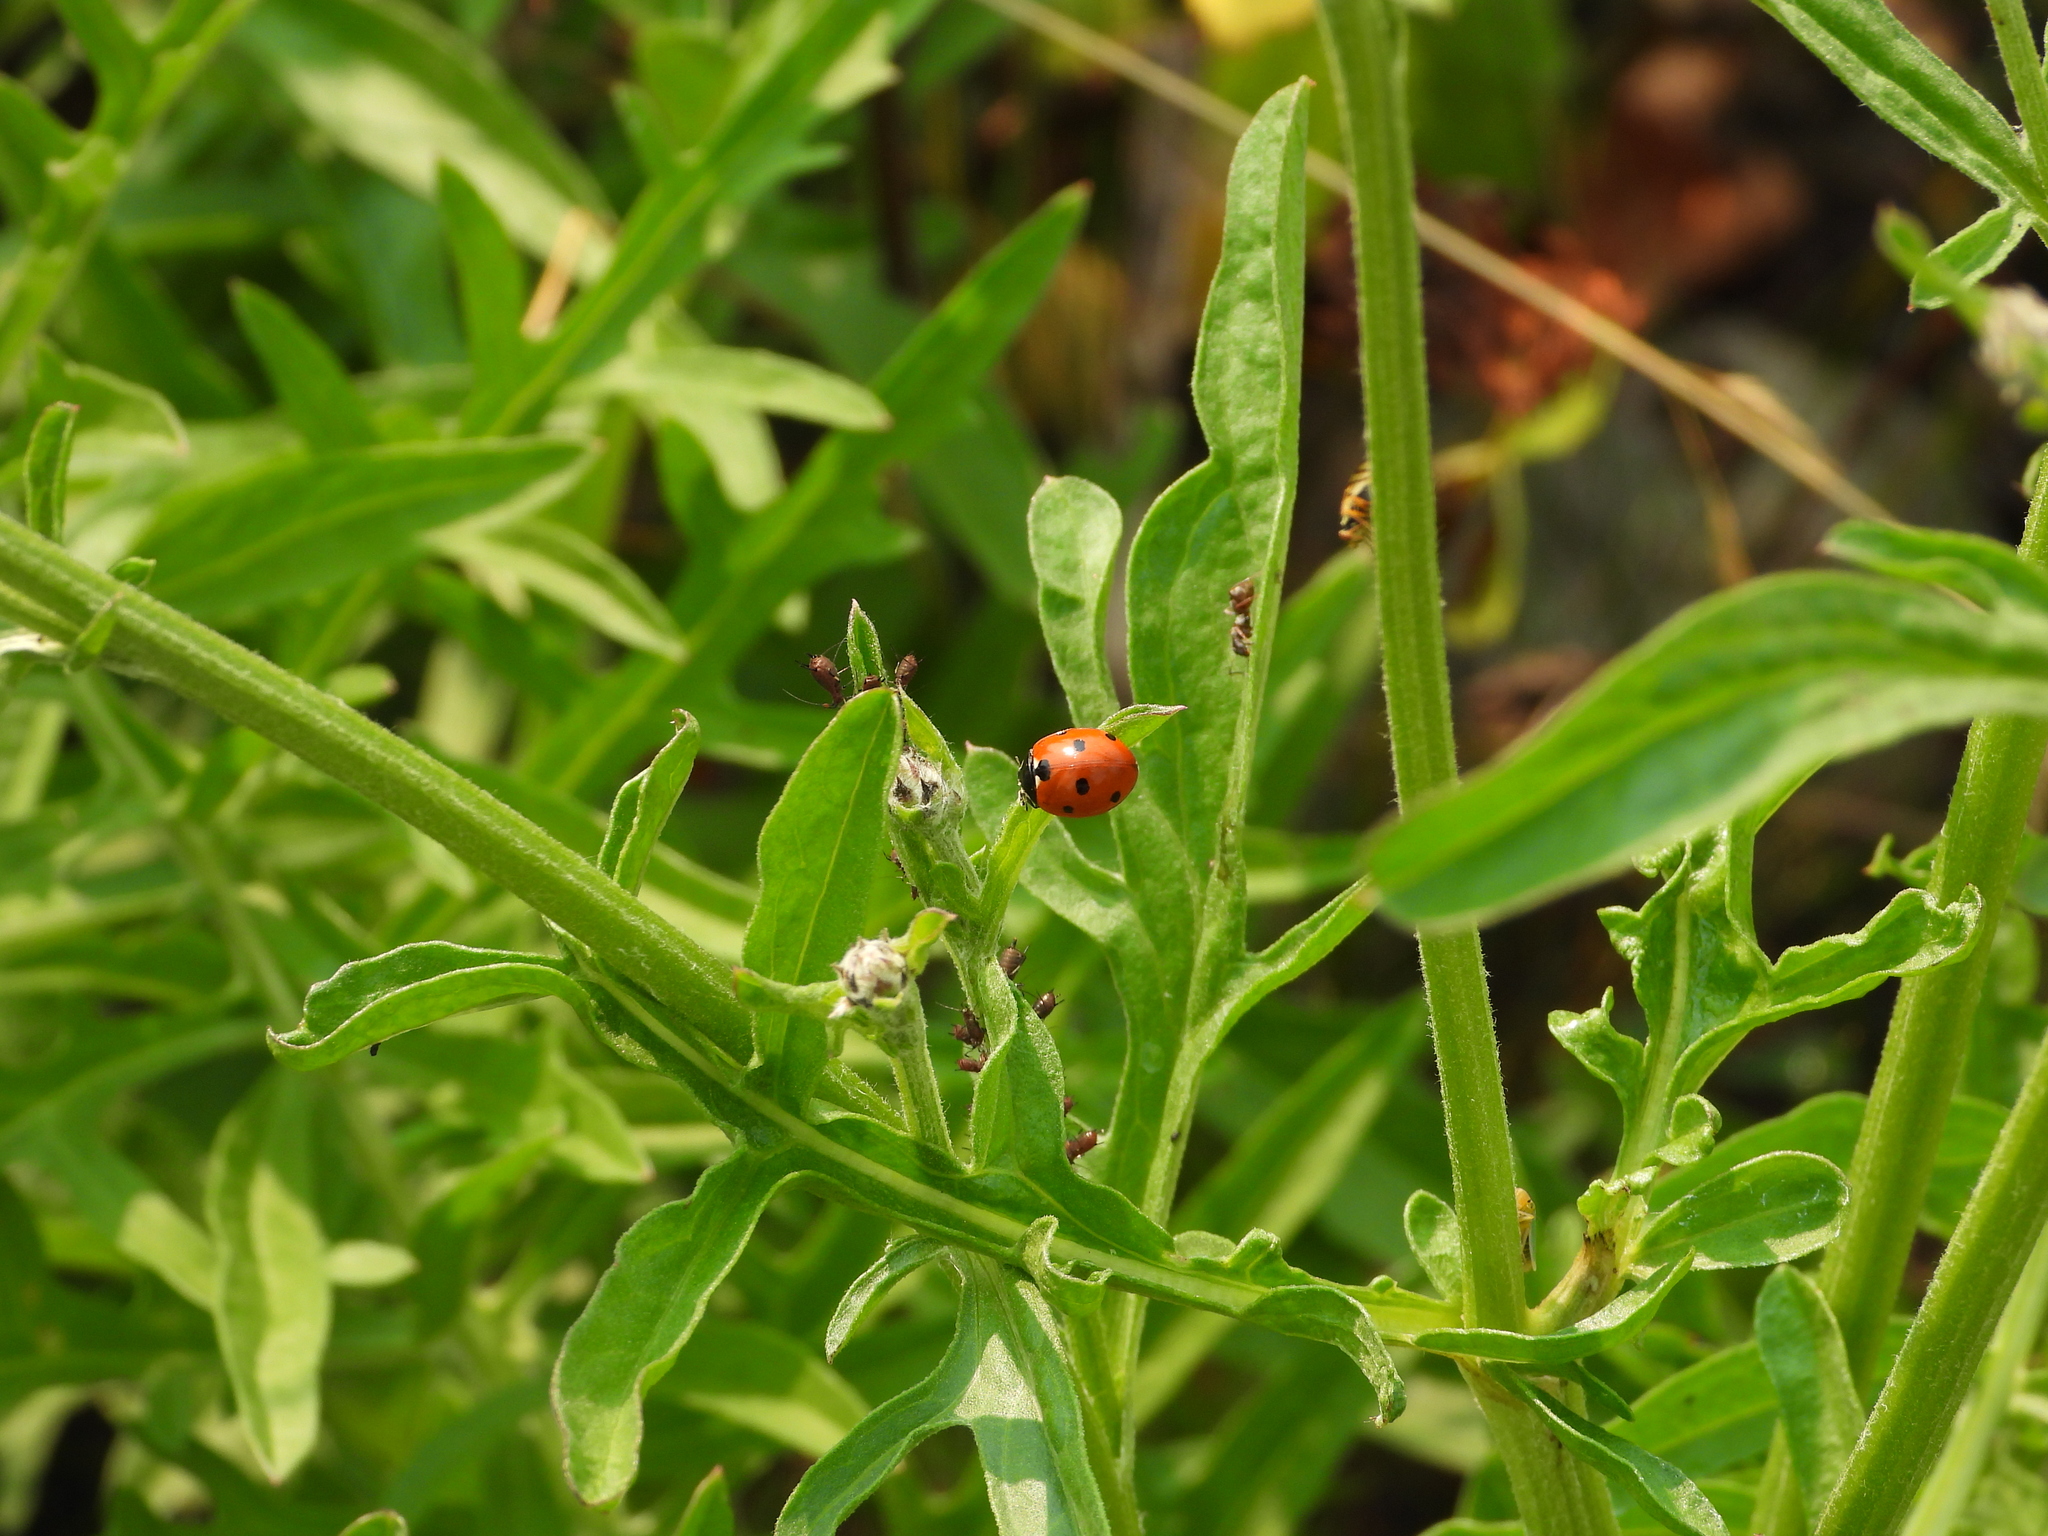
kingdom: Animalia
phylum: Arthropoda
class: Insecta
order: Coleoptera
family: Coccinellidae
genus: Coccinella
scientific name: Coccinella septempunctata
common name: Sevenspotted lady beetle
